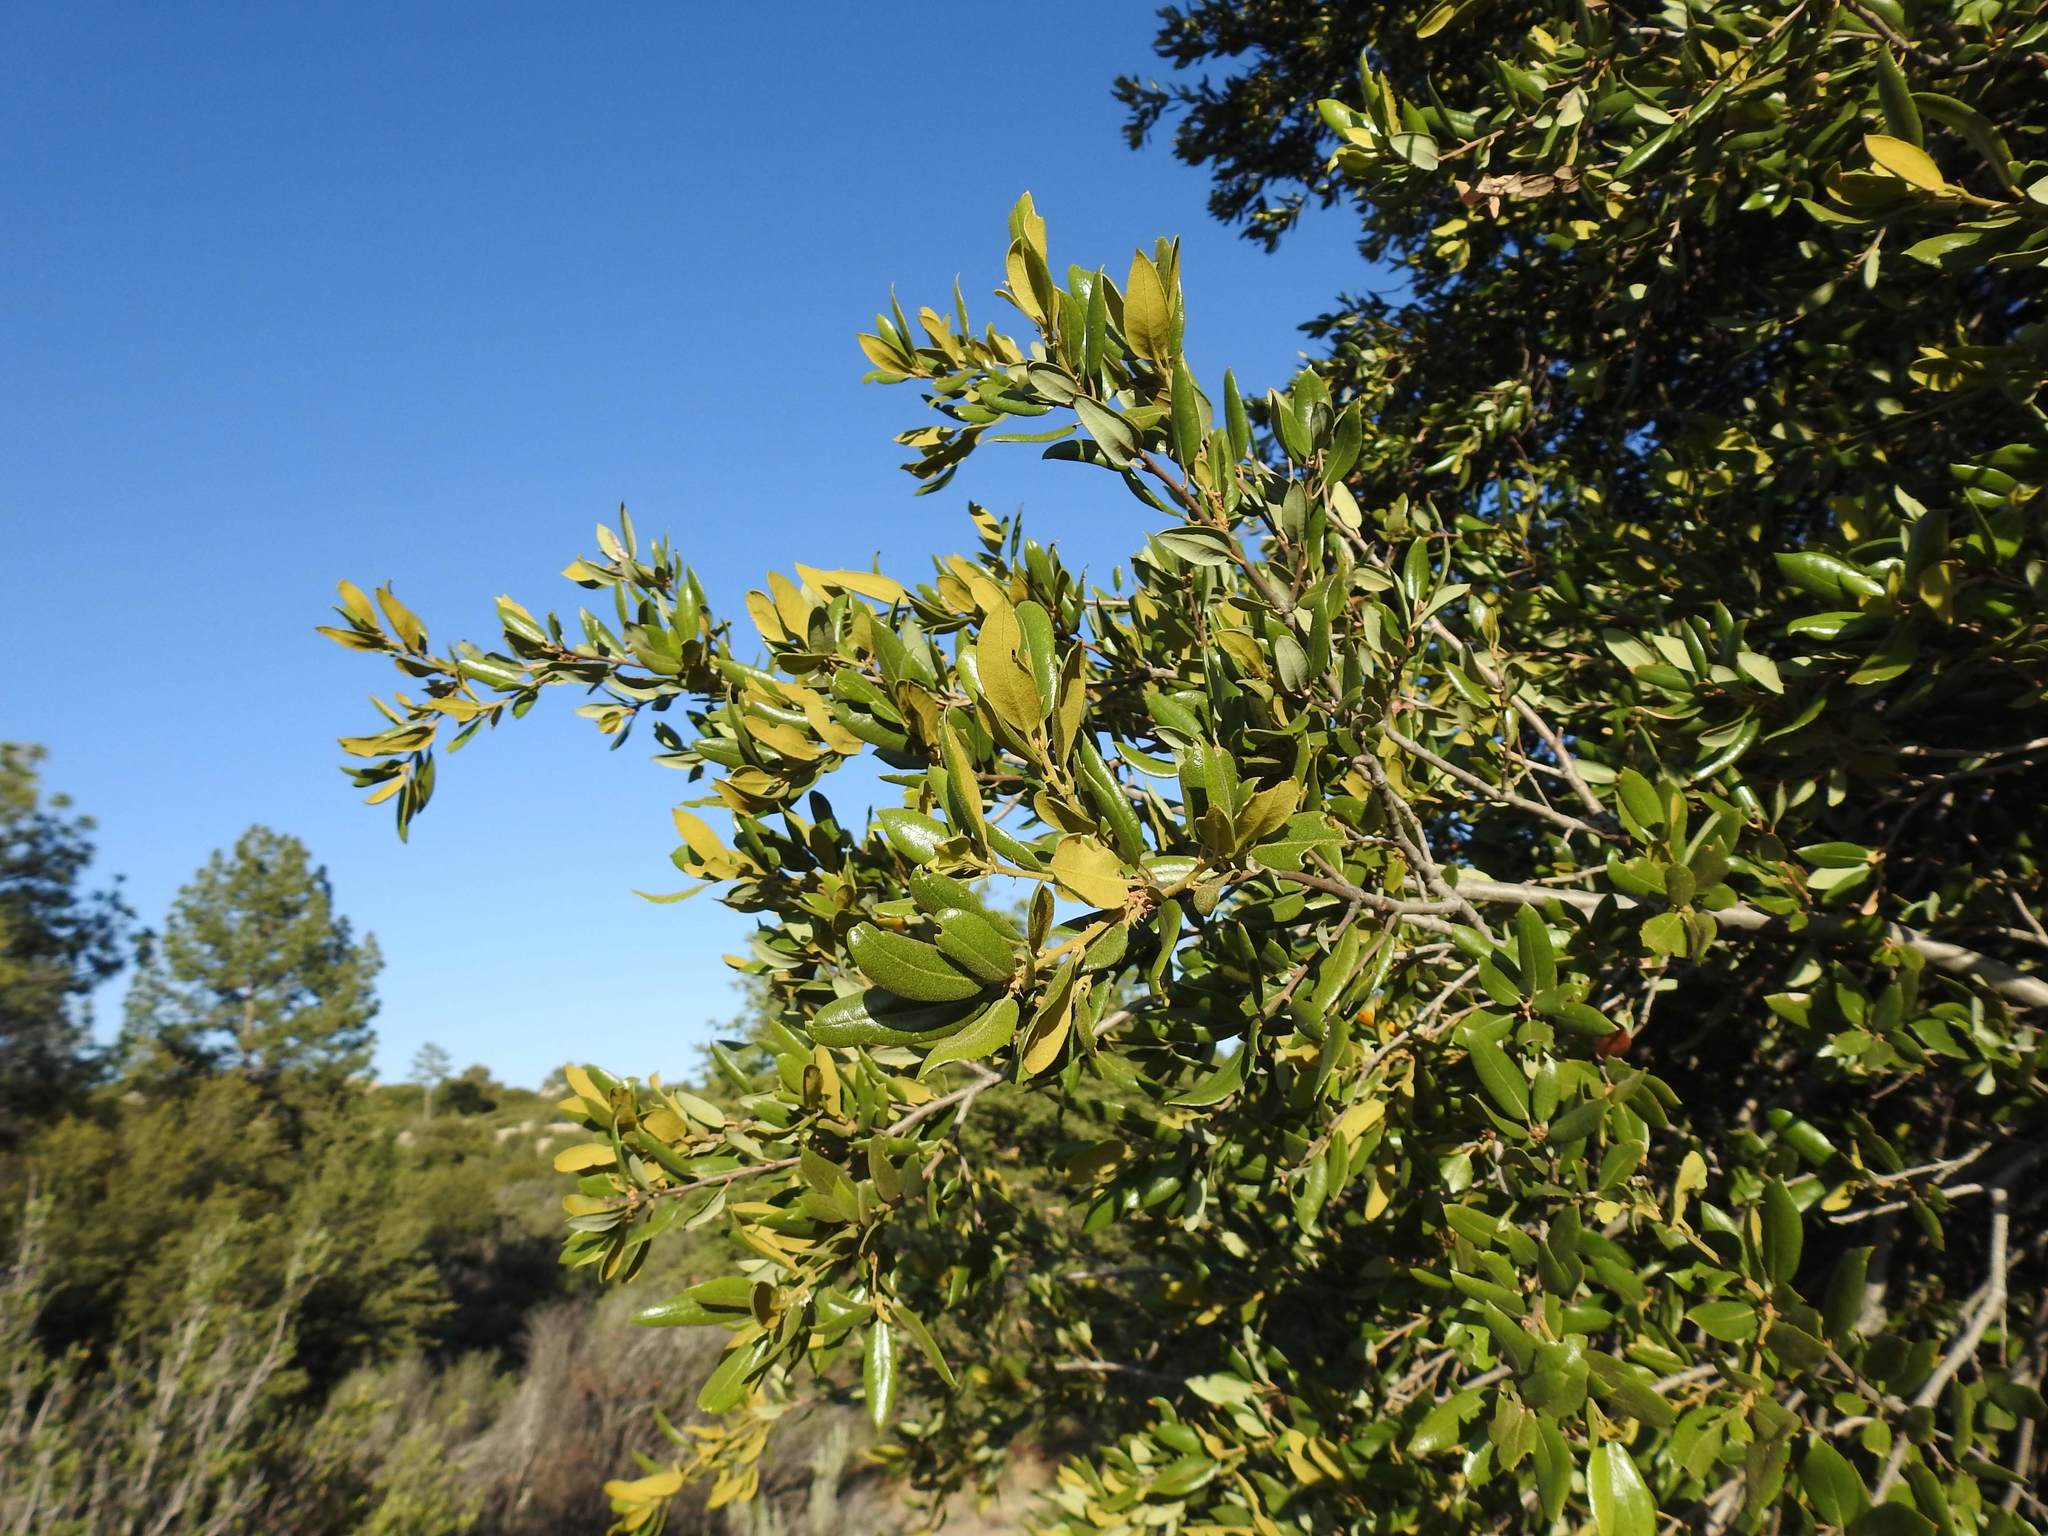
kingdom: Plantae
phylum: Tracheophyta
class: Magnoliopsida
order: Fagales
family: Fagaceae
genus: Quercus
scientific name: Quercus chrysolepis
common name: Canyon live oak
